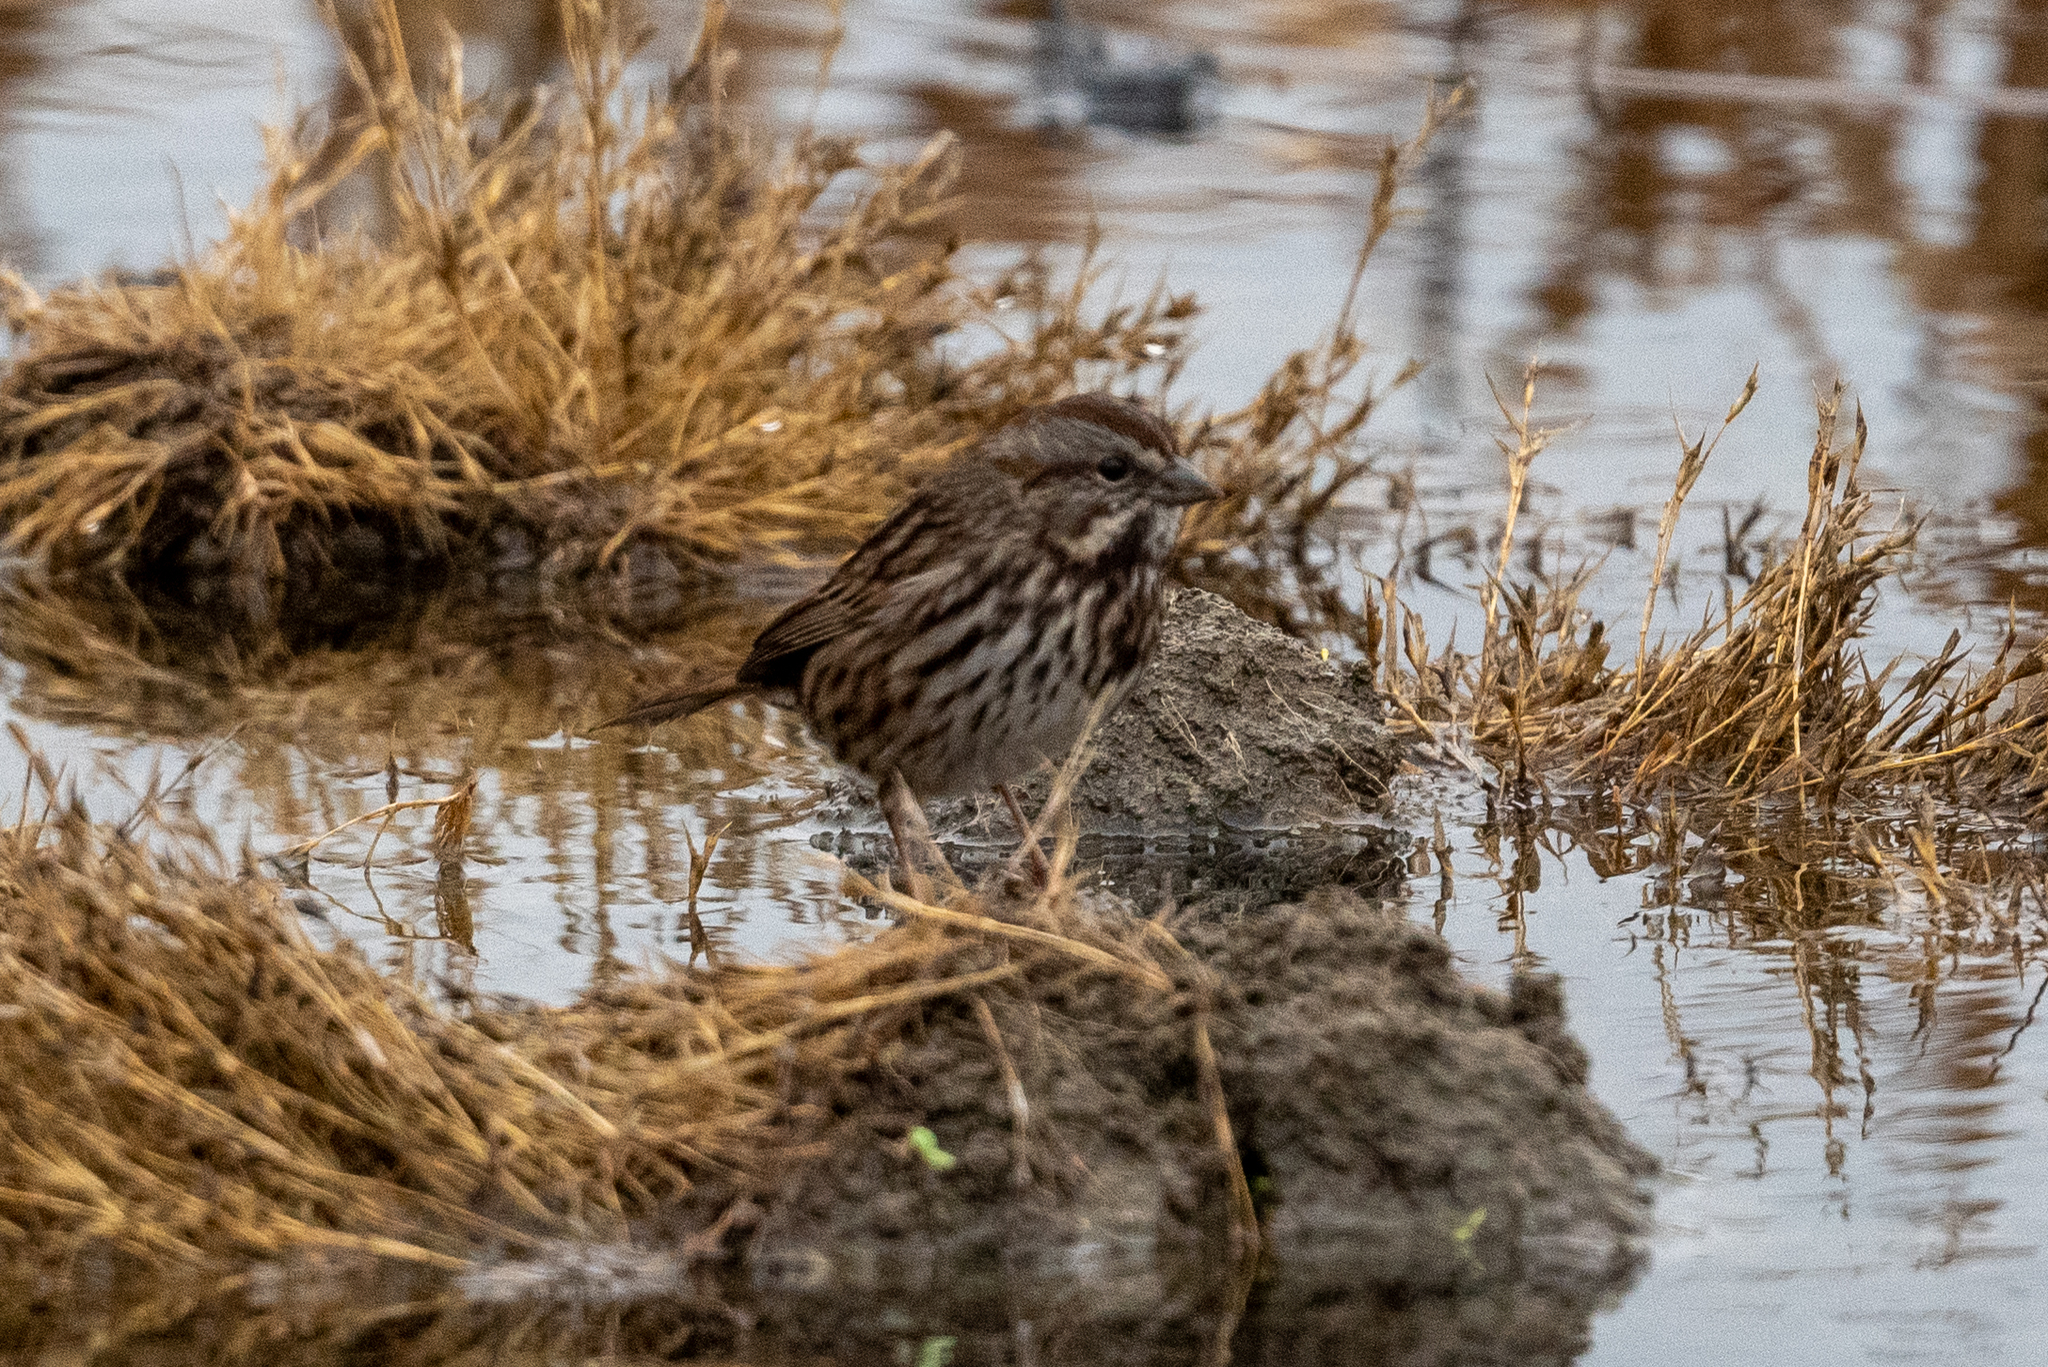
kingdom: Animalia
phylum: Chordata
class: Aves
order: Passeriformes
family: Passerellidae
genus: Melospiza
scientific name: Melospiza melodia
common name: Song sparrow
